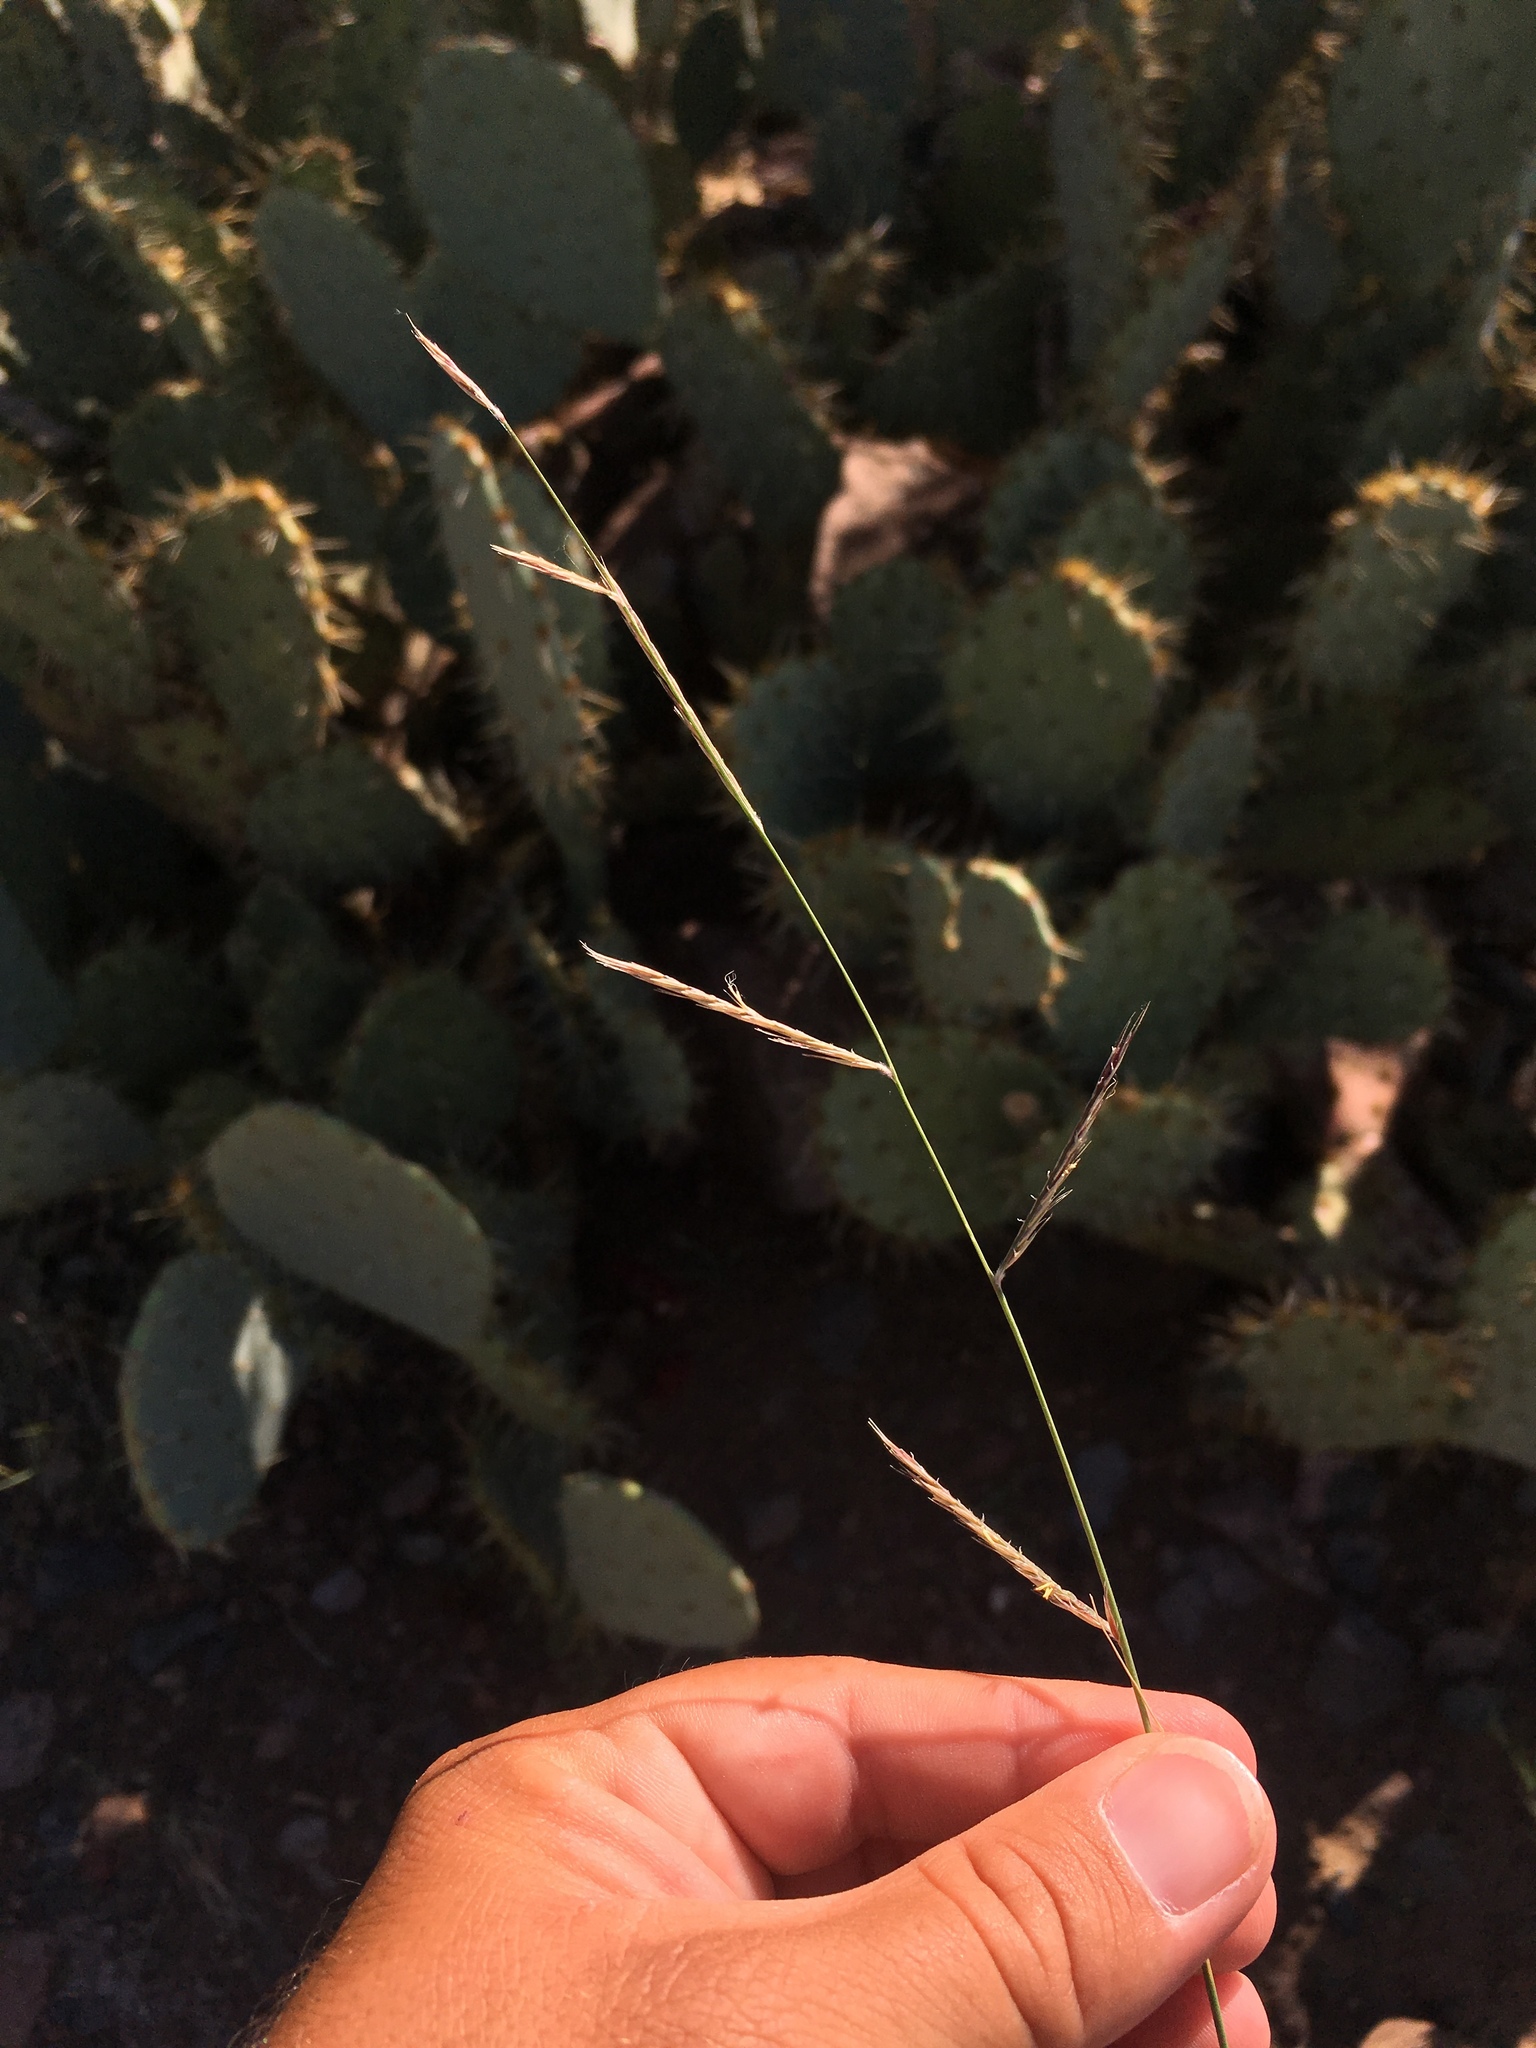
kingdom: Plantae
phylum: Tracheophyta
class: Liliopsida
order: Poales
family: Poaceae
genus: Bouteloua
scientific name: Bouteloua eriopoda
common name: Woolly foot grama
